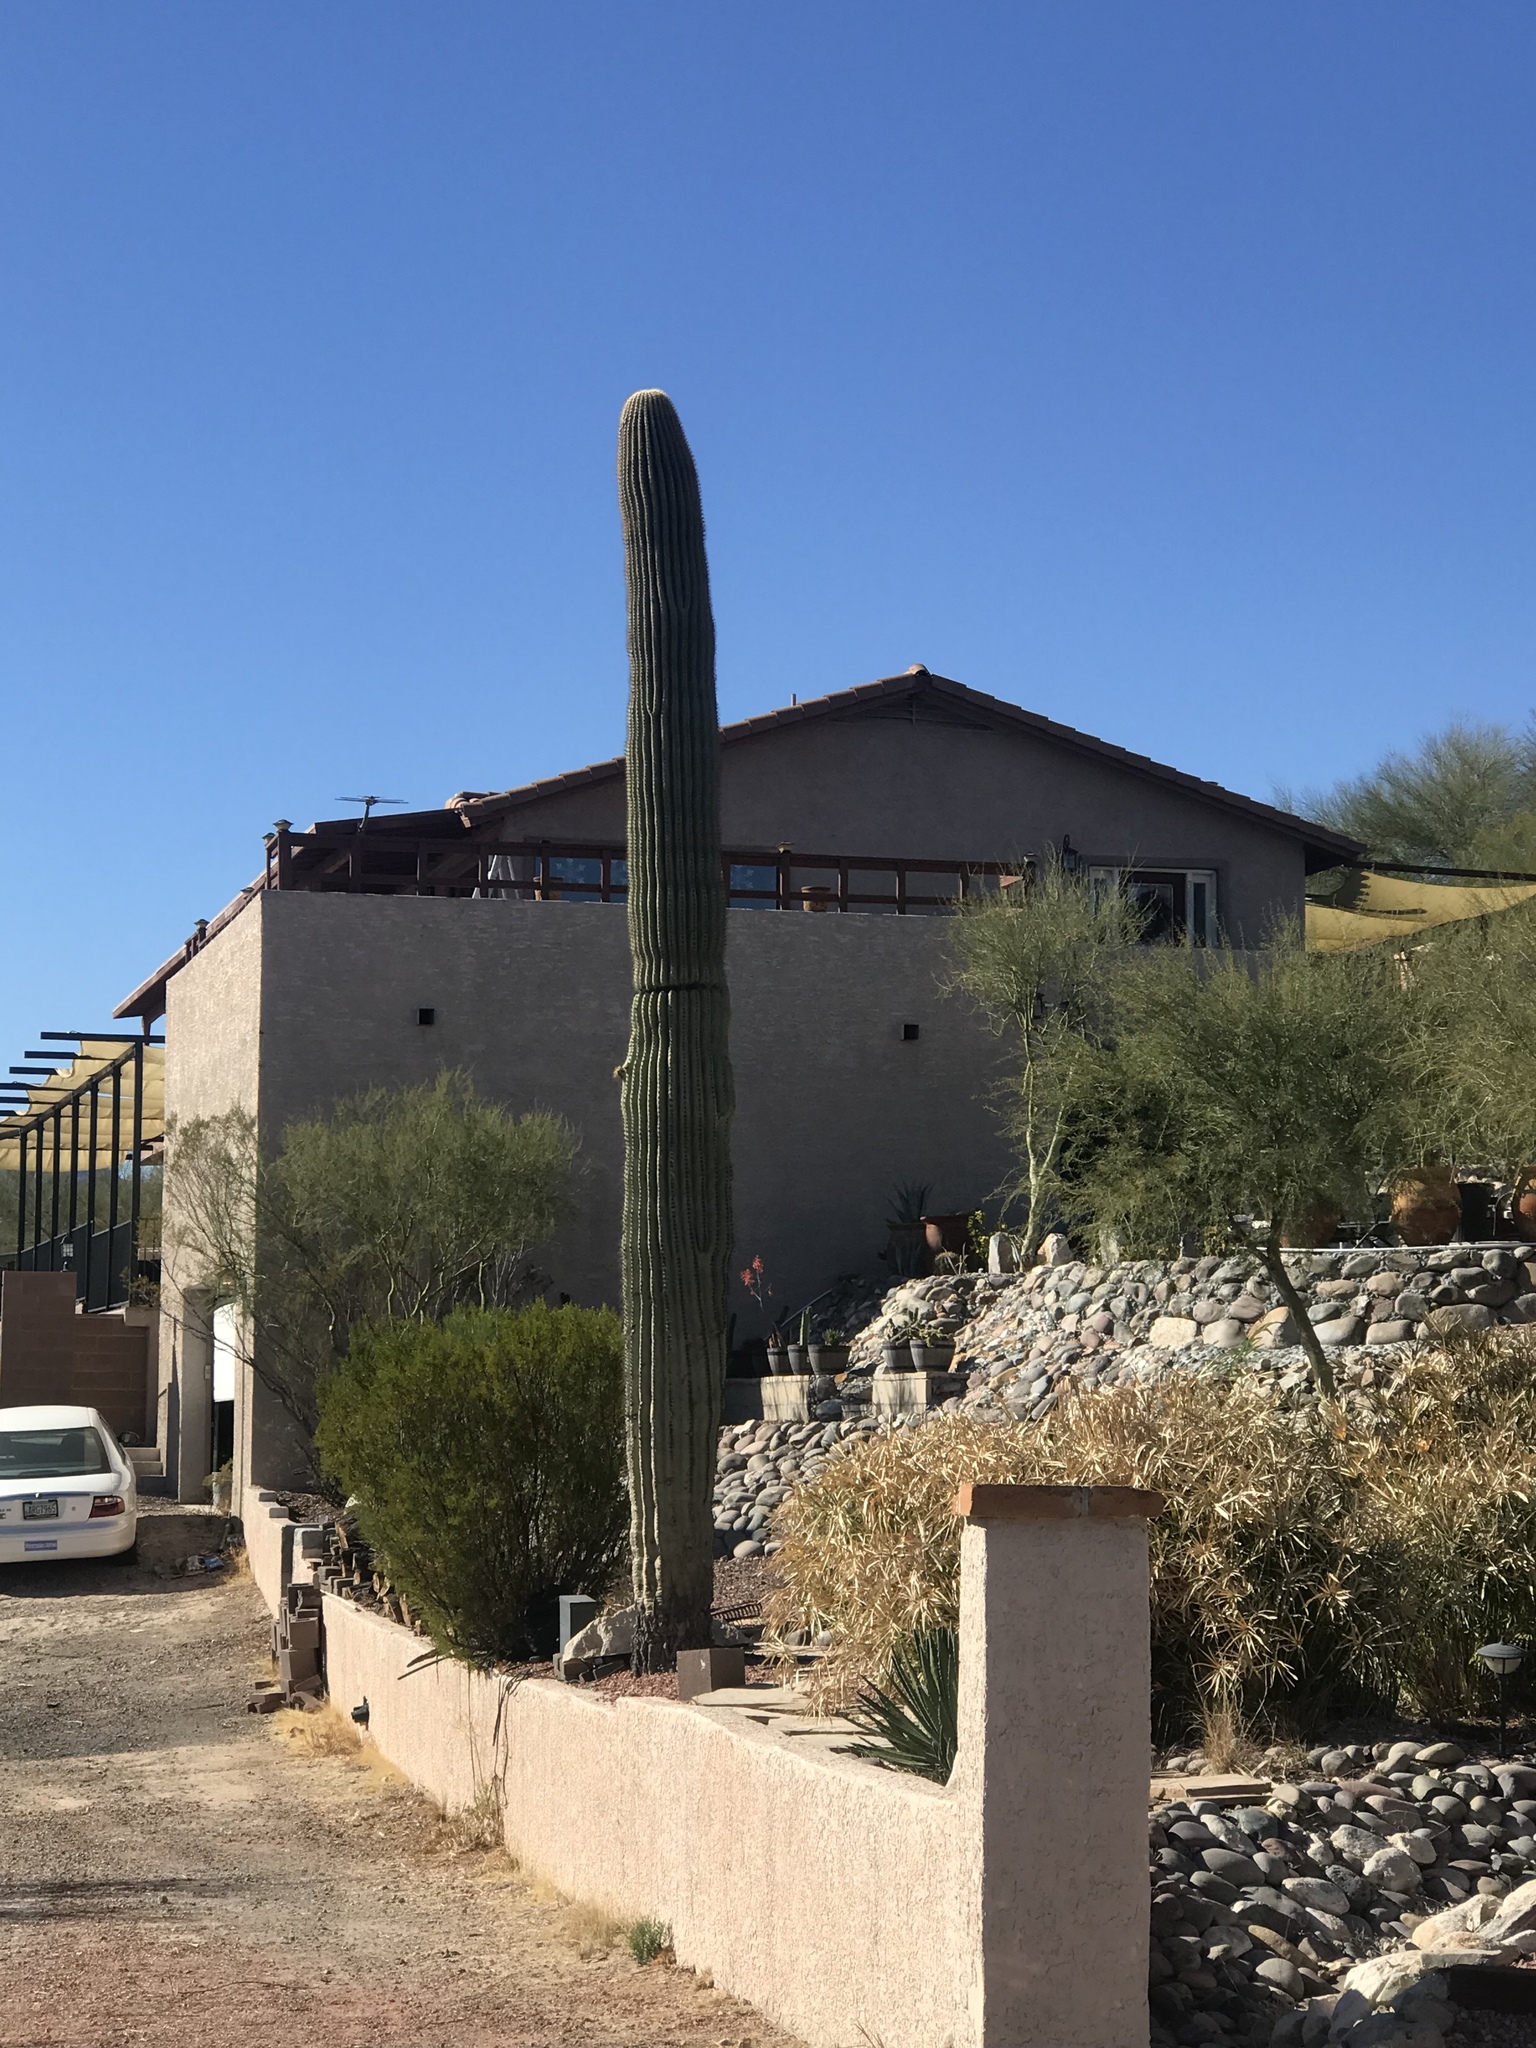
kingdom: Plantae
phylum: Tracheophyta
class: Magnoliopsida
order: Caryophyllales
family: Cactaceae
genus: Carnegiea
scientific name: Carnegiea gigantea
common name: Saguaro
